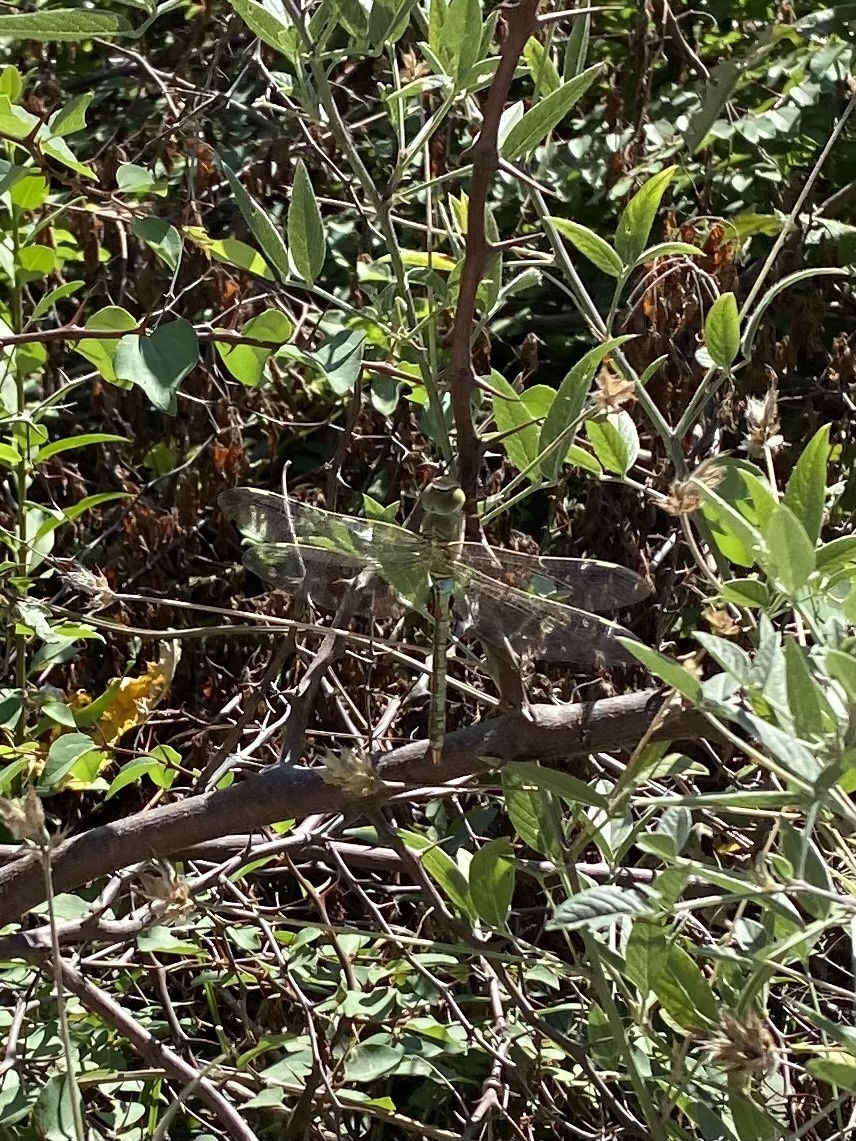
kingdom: Animalia
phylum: Arthropoda
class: Insecta
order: Odonata
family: Aeshnidae
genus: Anax
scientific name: Anax parthenope
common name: Lesser emperor
